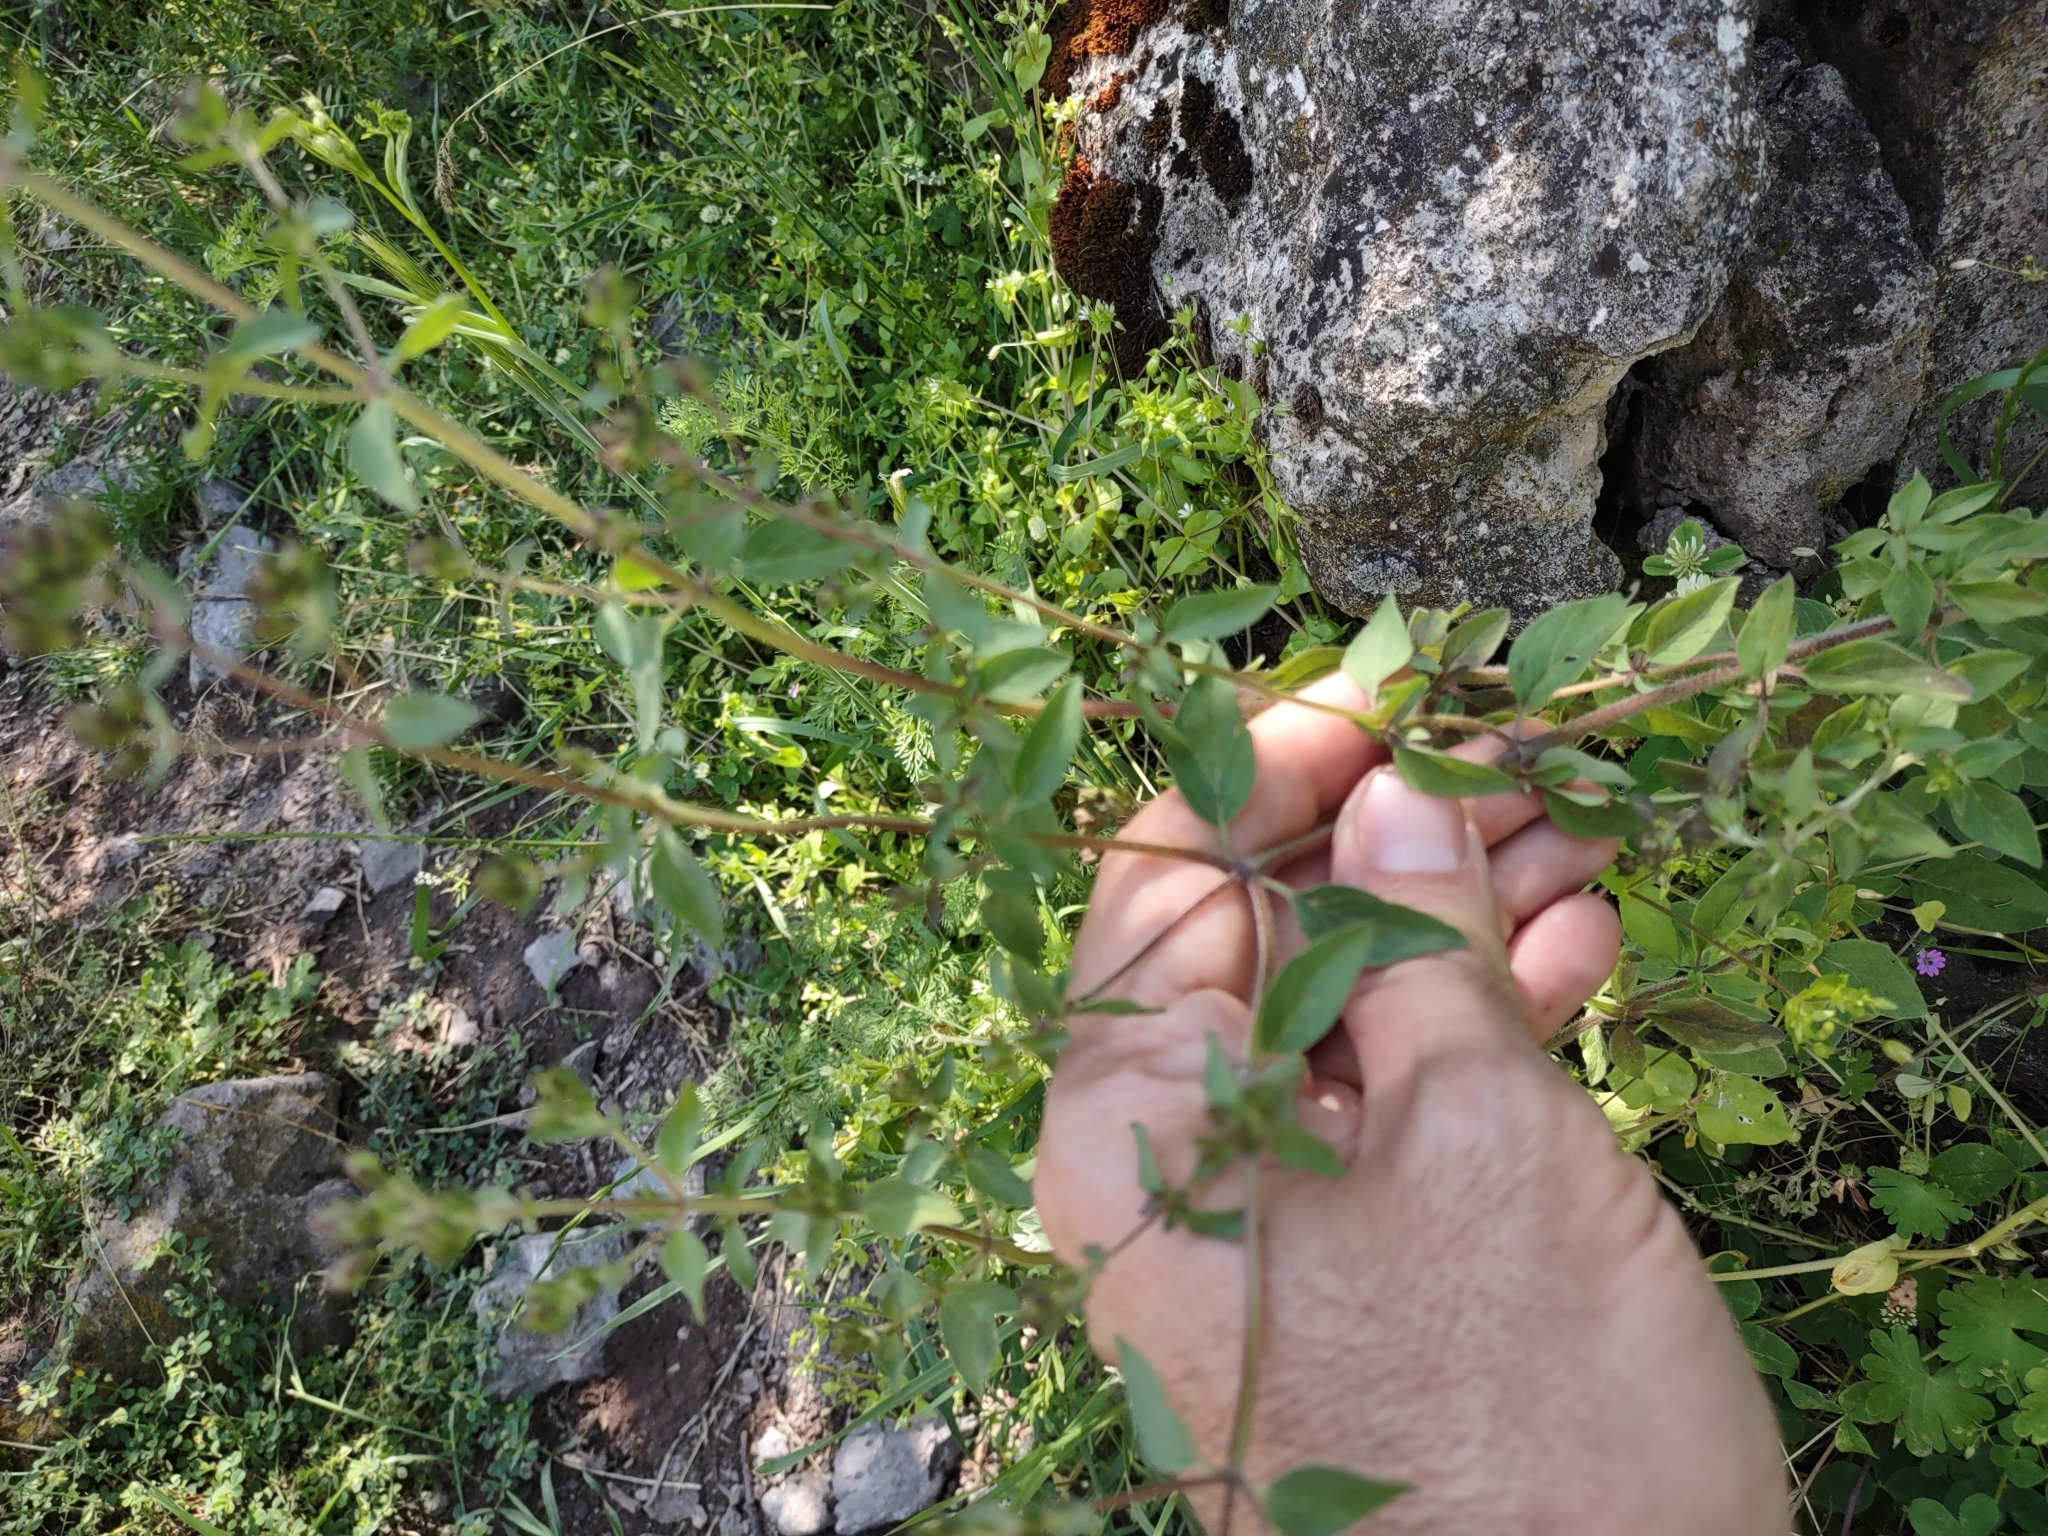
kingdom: Plantae
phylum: Tracheophyta
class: Magnoliopsida
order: Lamiales
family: Lamiaceae
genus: Origanum
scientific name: Origanum vulgare
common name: Wild marjoram
